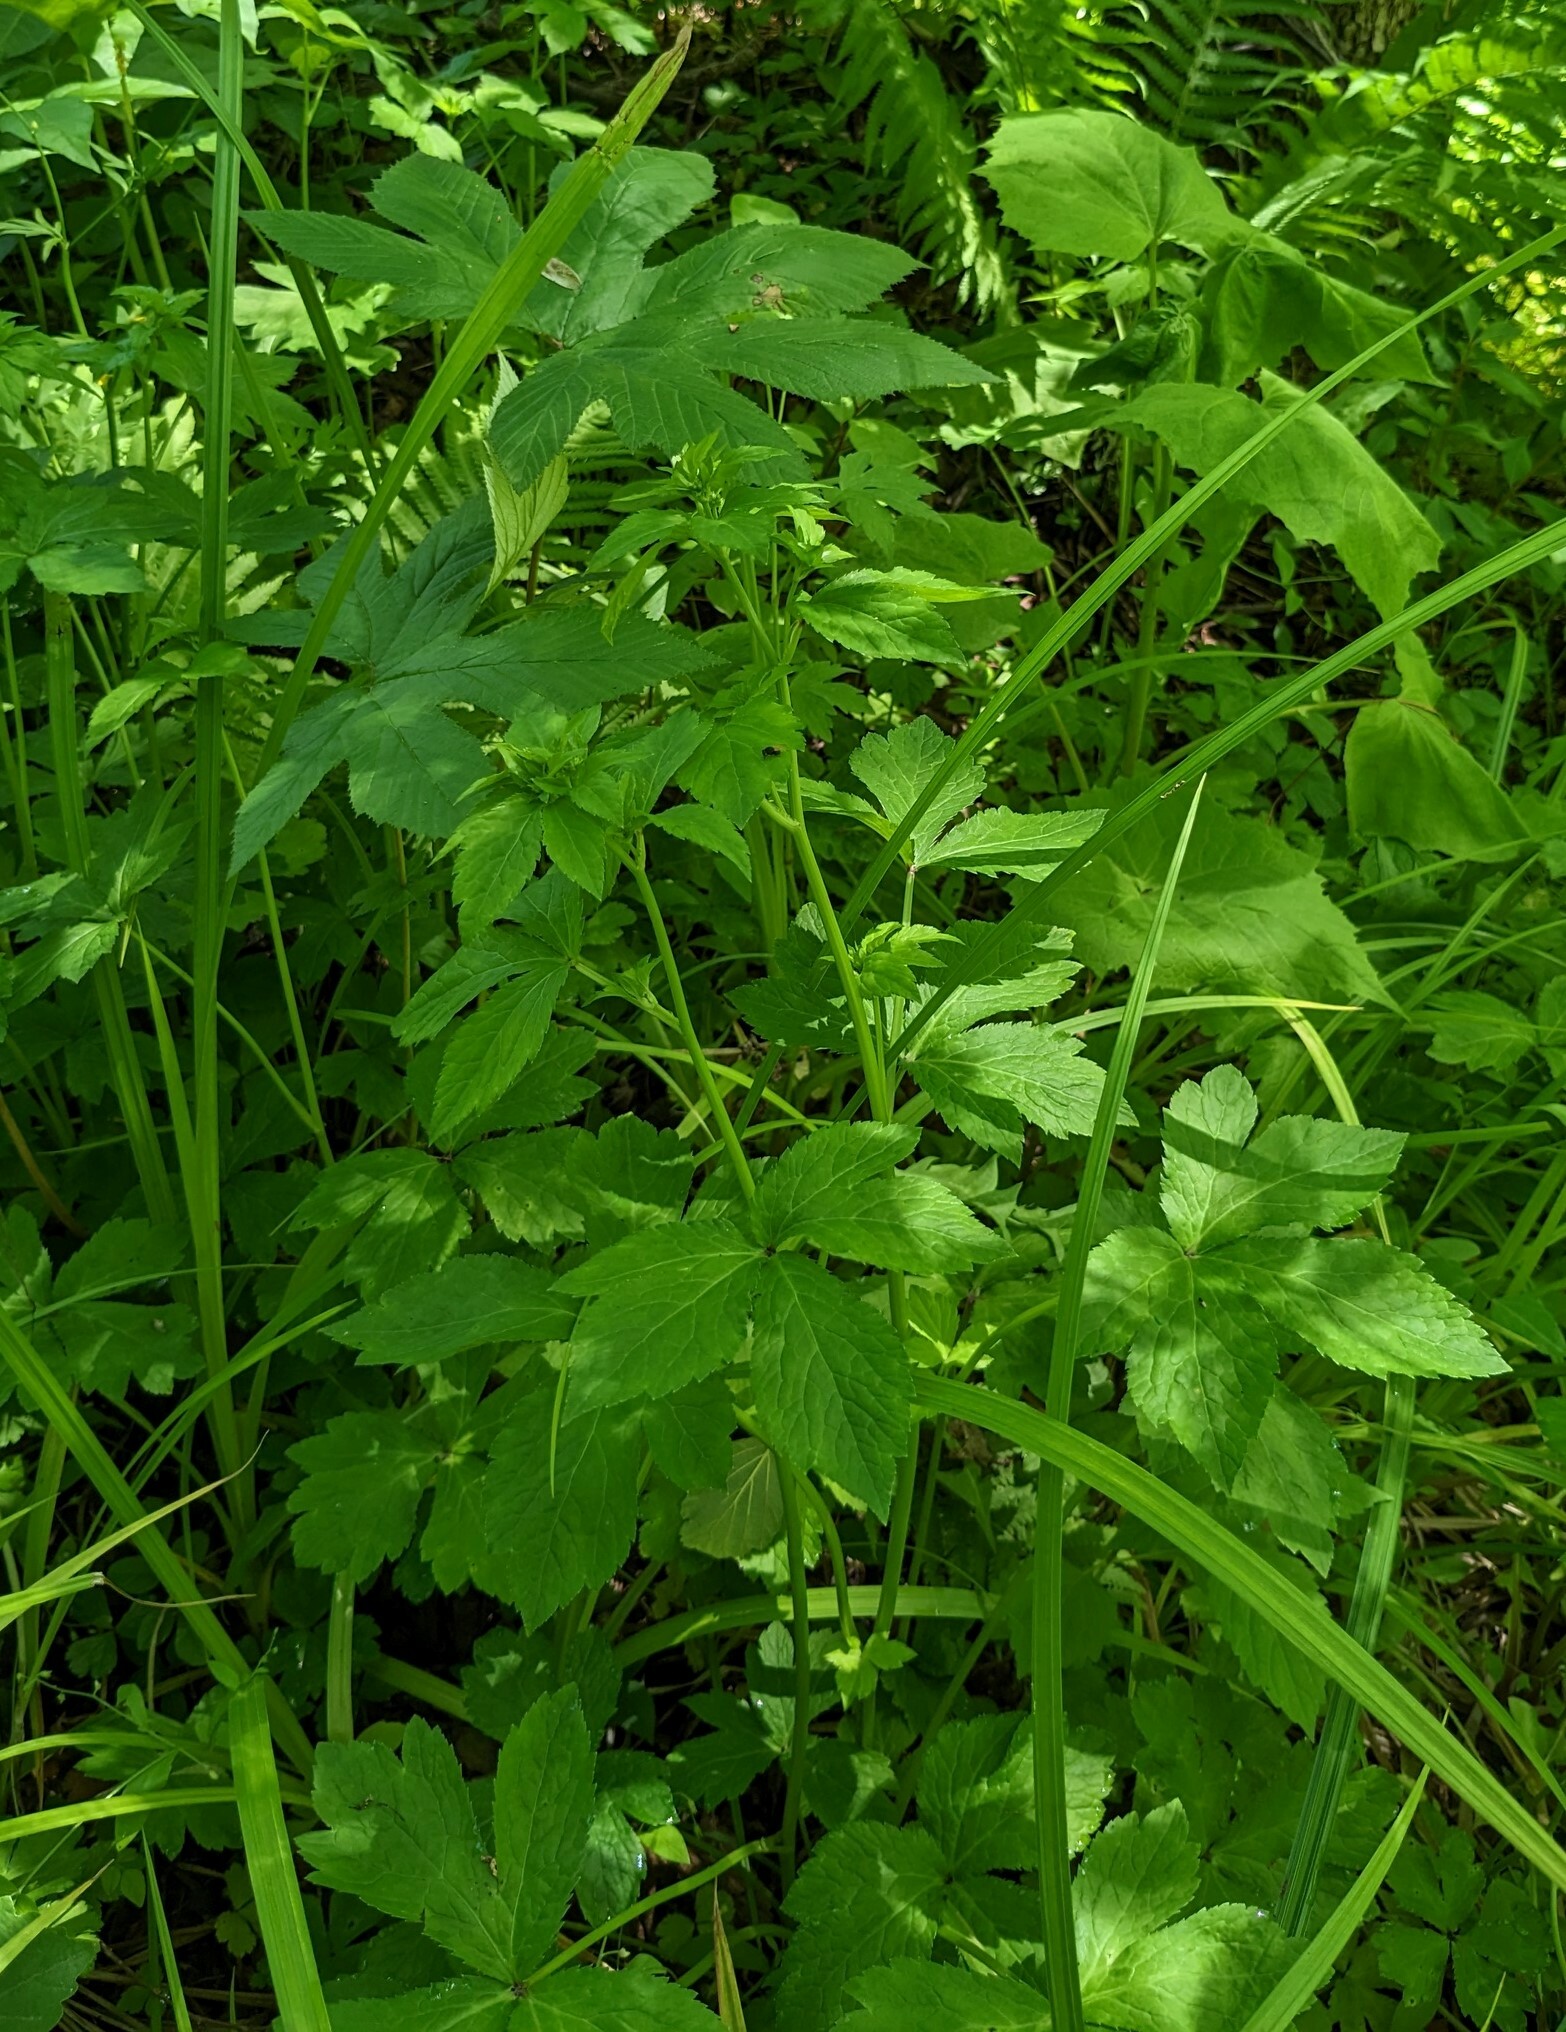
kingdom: Plantae
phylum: Tracheophyta
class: Magnoliopsida
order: Apiales
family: Apiaceae
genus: Sanicula
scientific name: Sanicula chinensis
